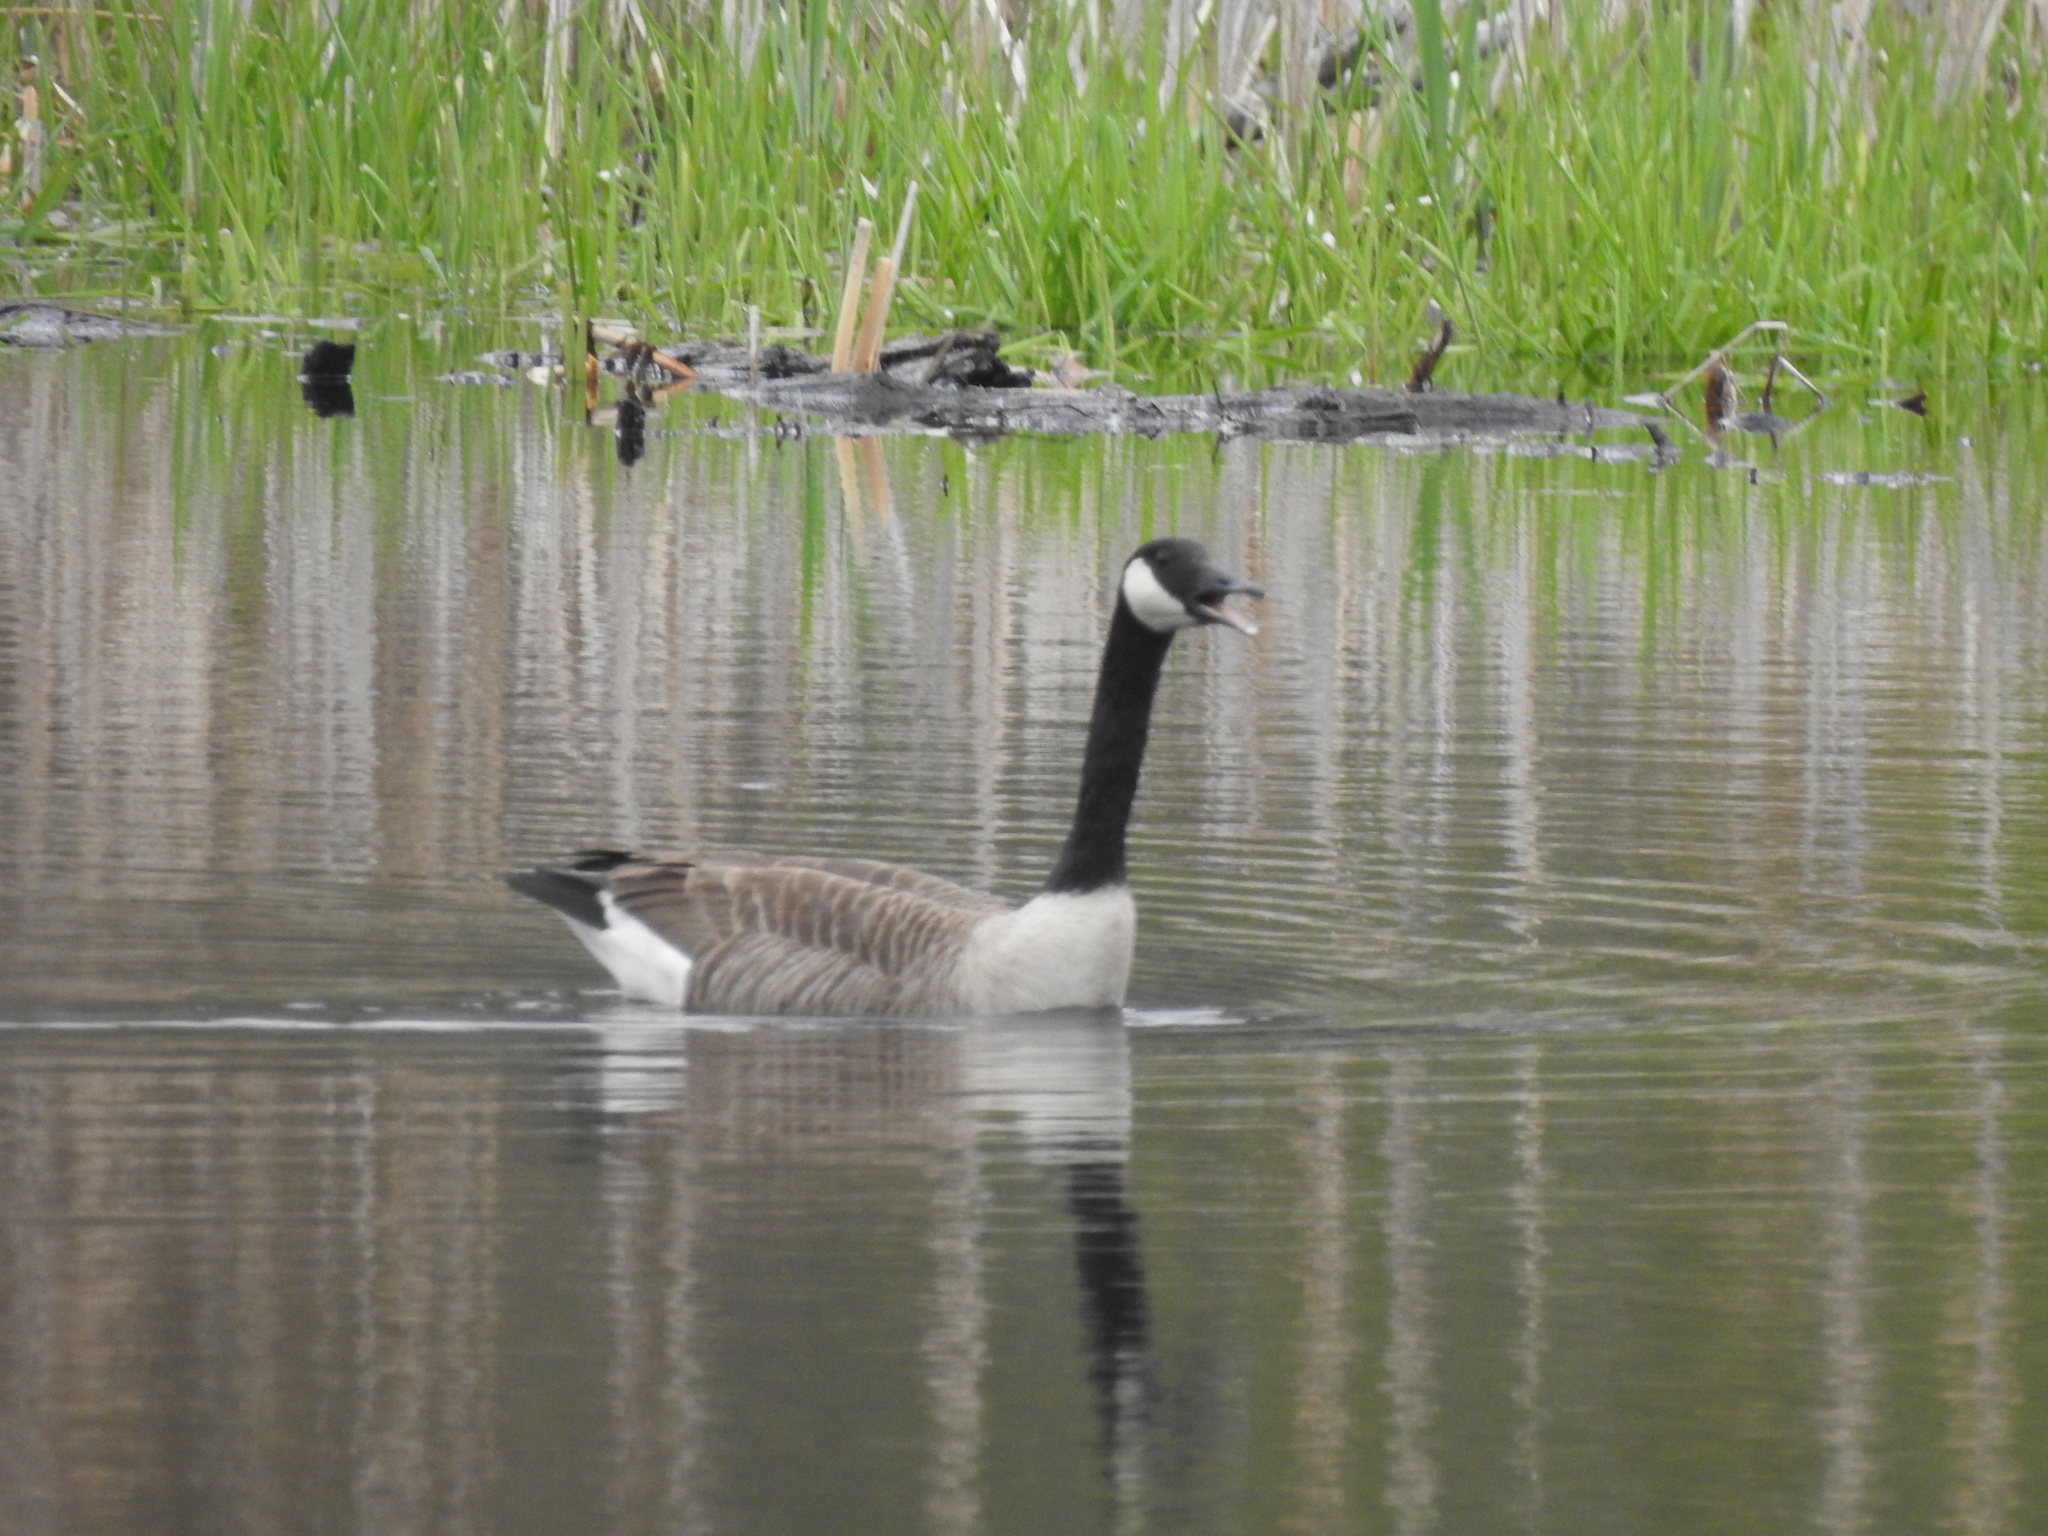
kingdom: Animalia
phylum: Chordata
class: Aves
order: Anseriformes
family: Anatidae
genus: Branta
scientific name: Branta canadensis
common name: Canada goose
